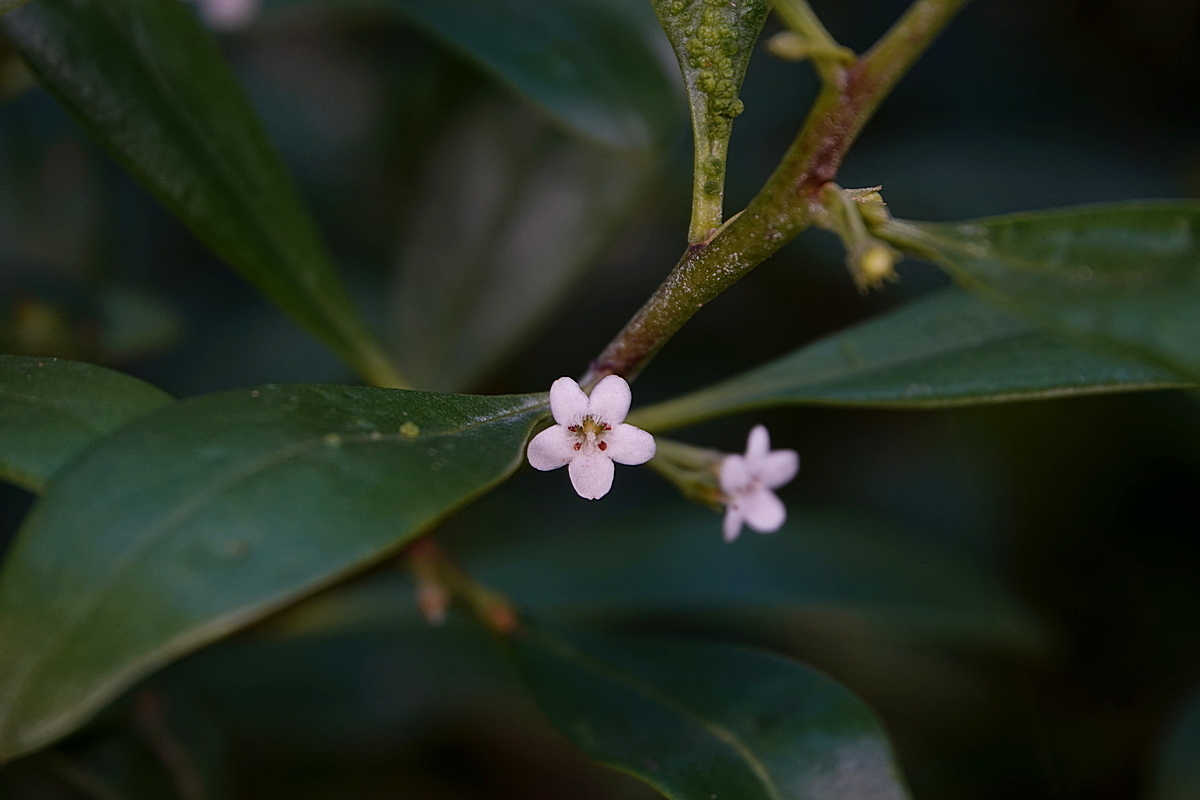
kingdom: Plantae
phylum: Tracheophyta
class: Magnoliopsida
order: Lamiales
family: Scrophulariaceae
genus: Myoporum
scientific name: Myoporum boninense
